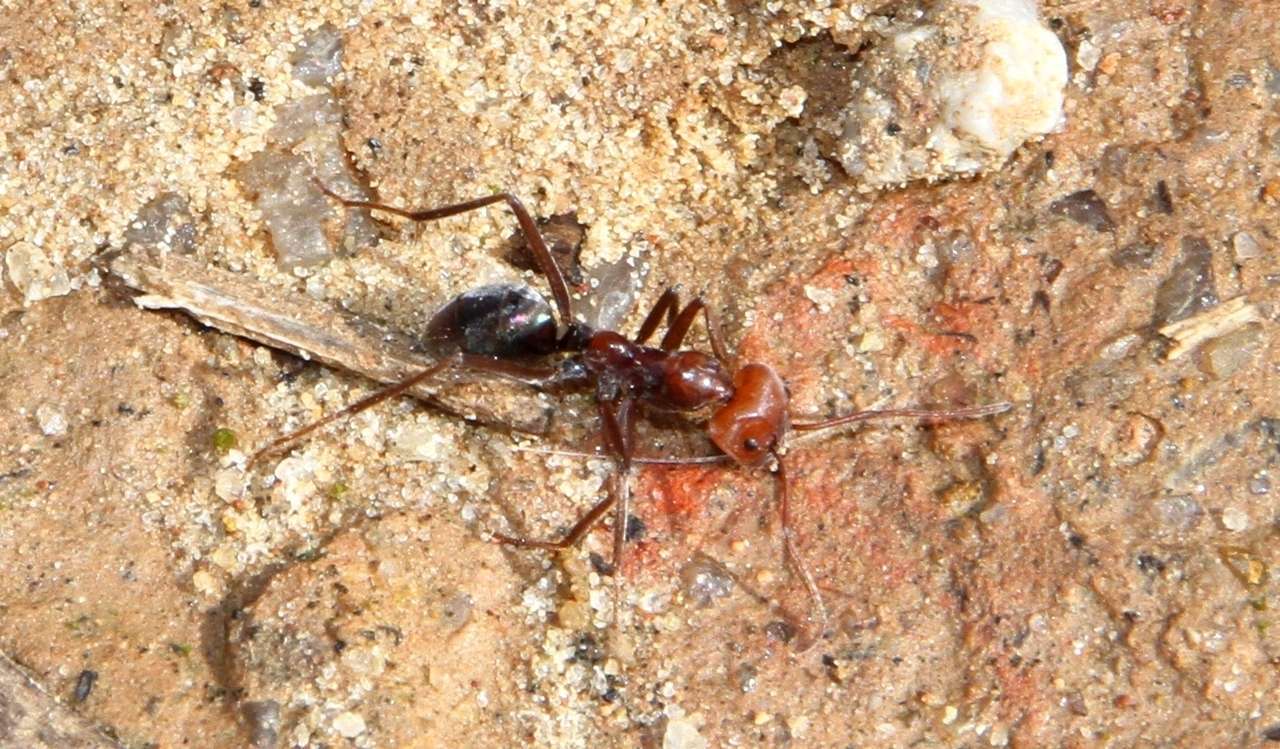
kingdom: Animalia
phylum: Arthropoda
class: Insecta
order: Hymenoptera
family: Formicidae
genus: Iridomyrmex
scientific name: Iridomyrmex purpureus
